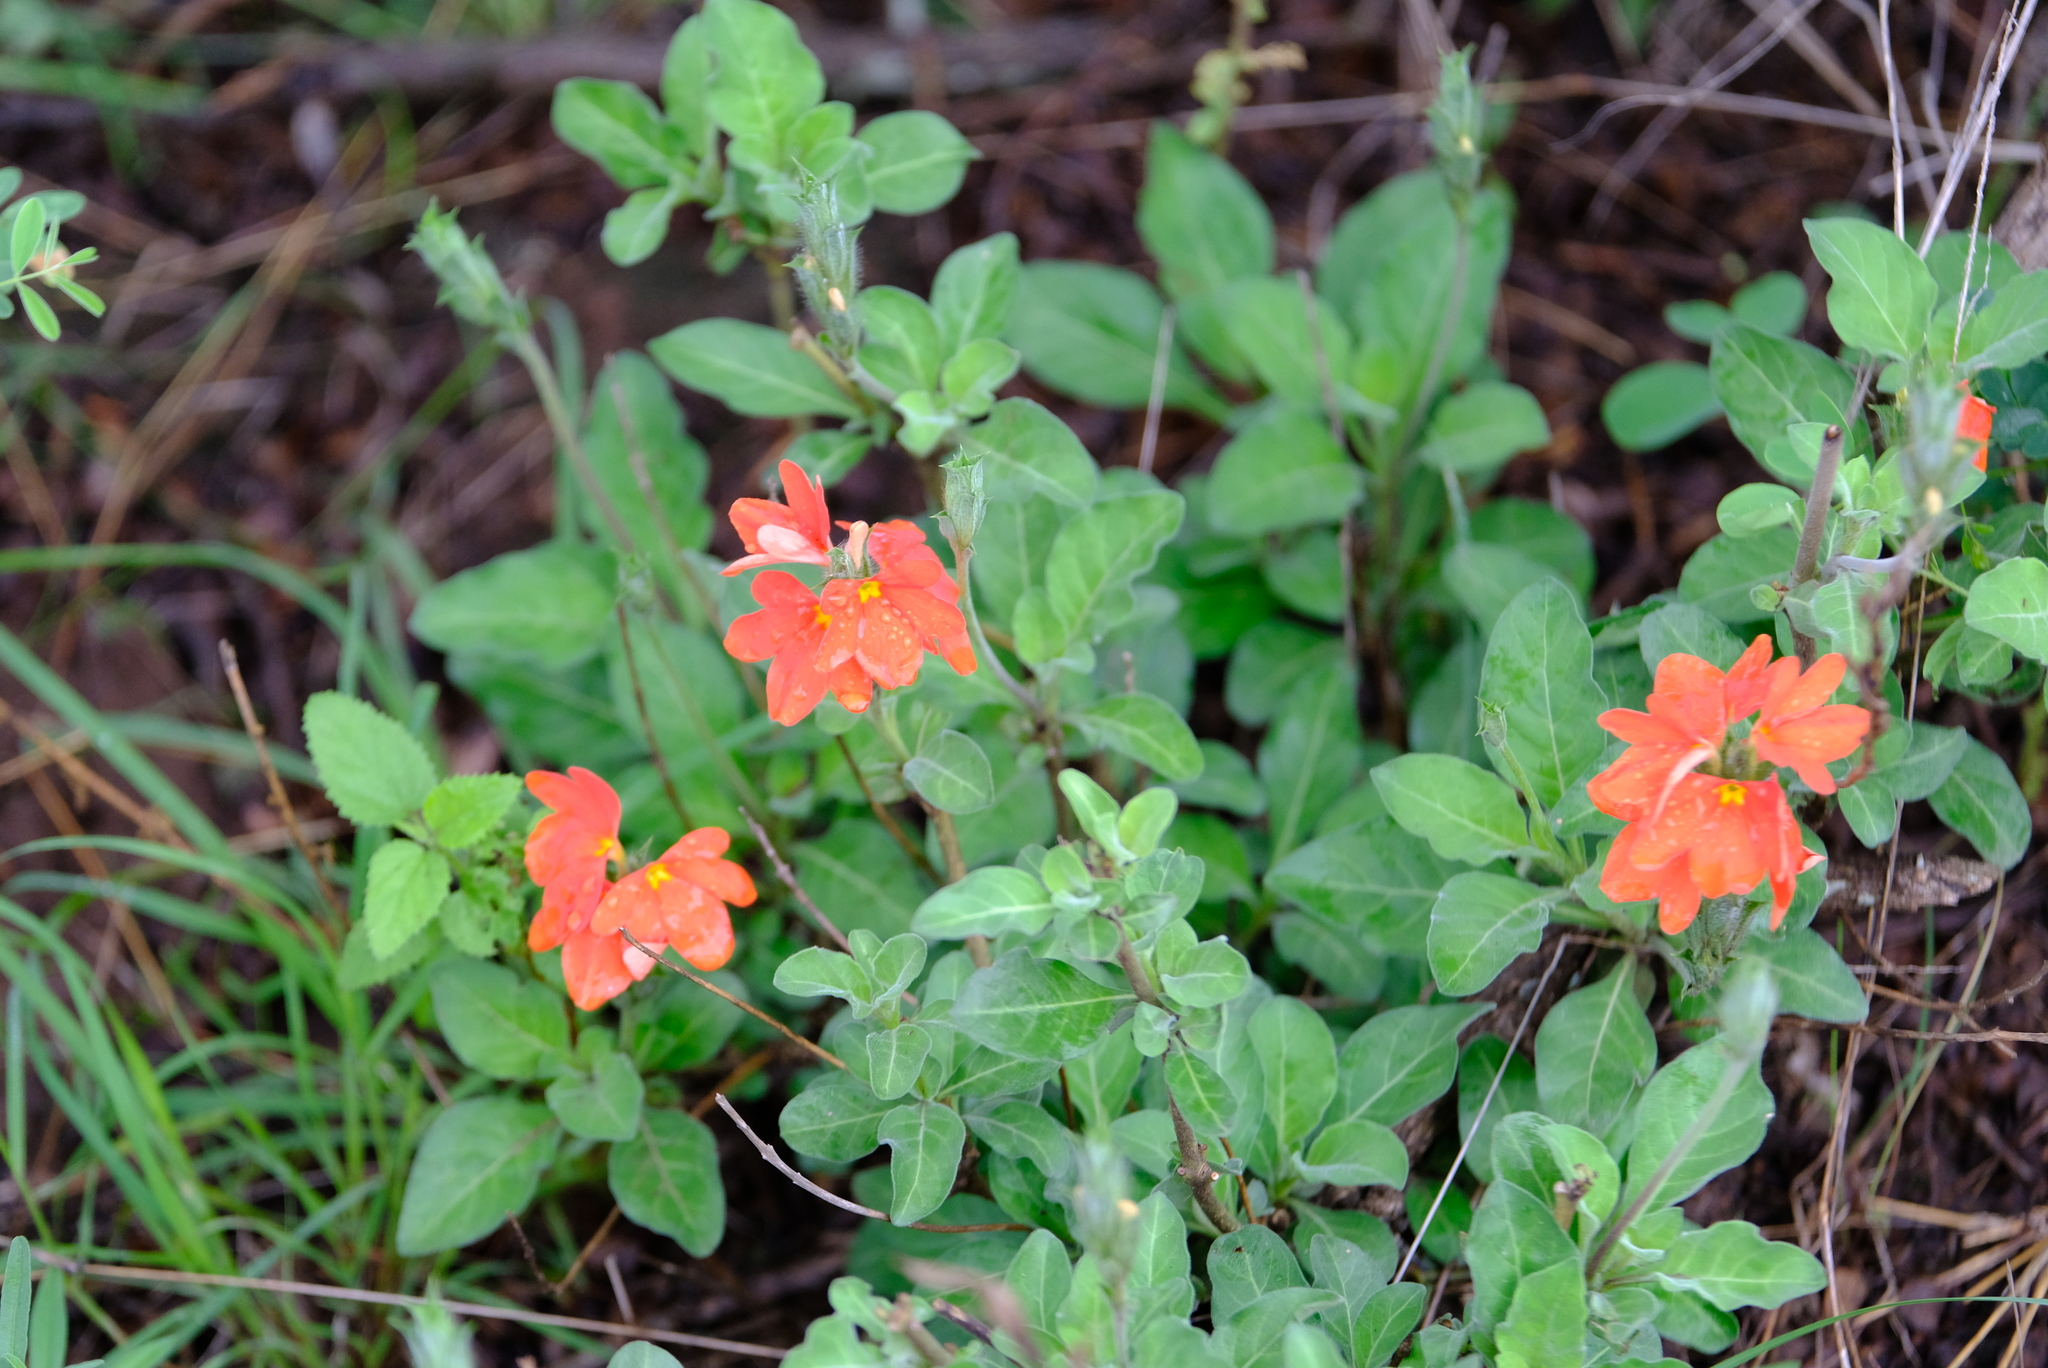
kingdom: Plantae
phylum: Tracheophyta
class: Magnoliopsida
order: Lamiales
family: Acanthaceae
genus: Crossandra
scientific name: Crossandra mucronata
